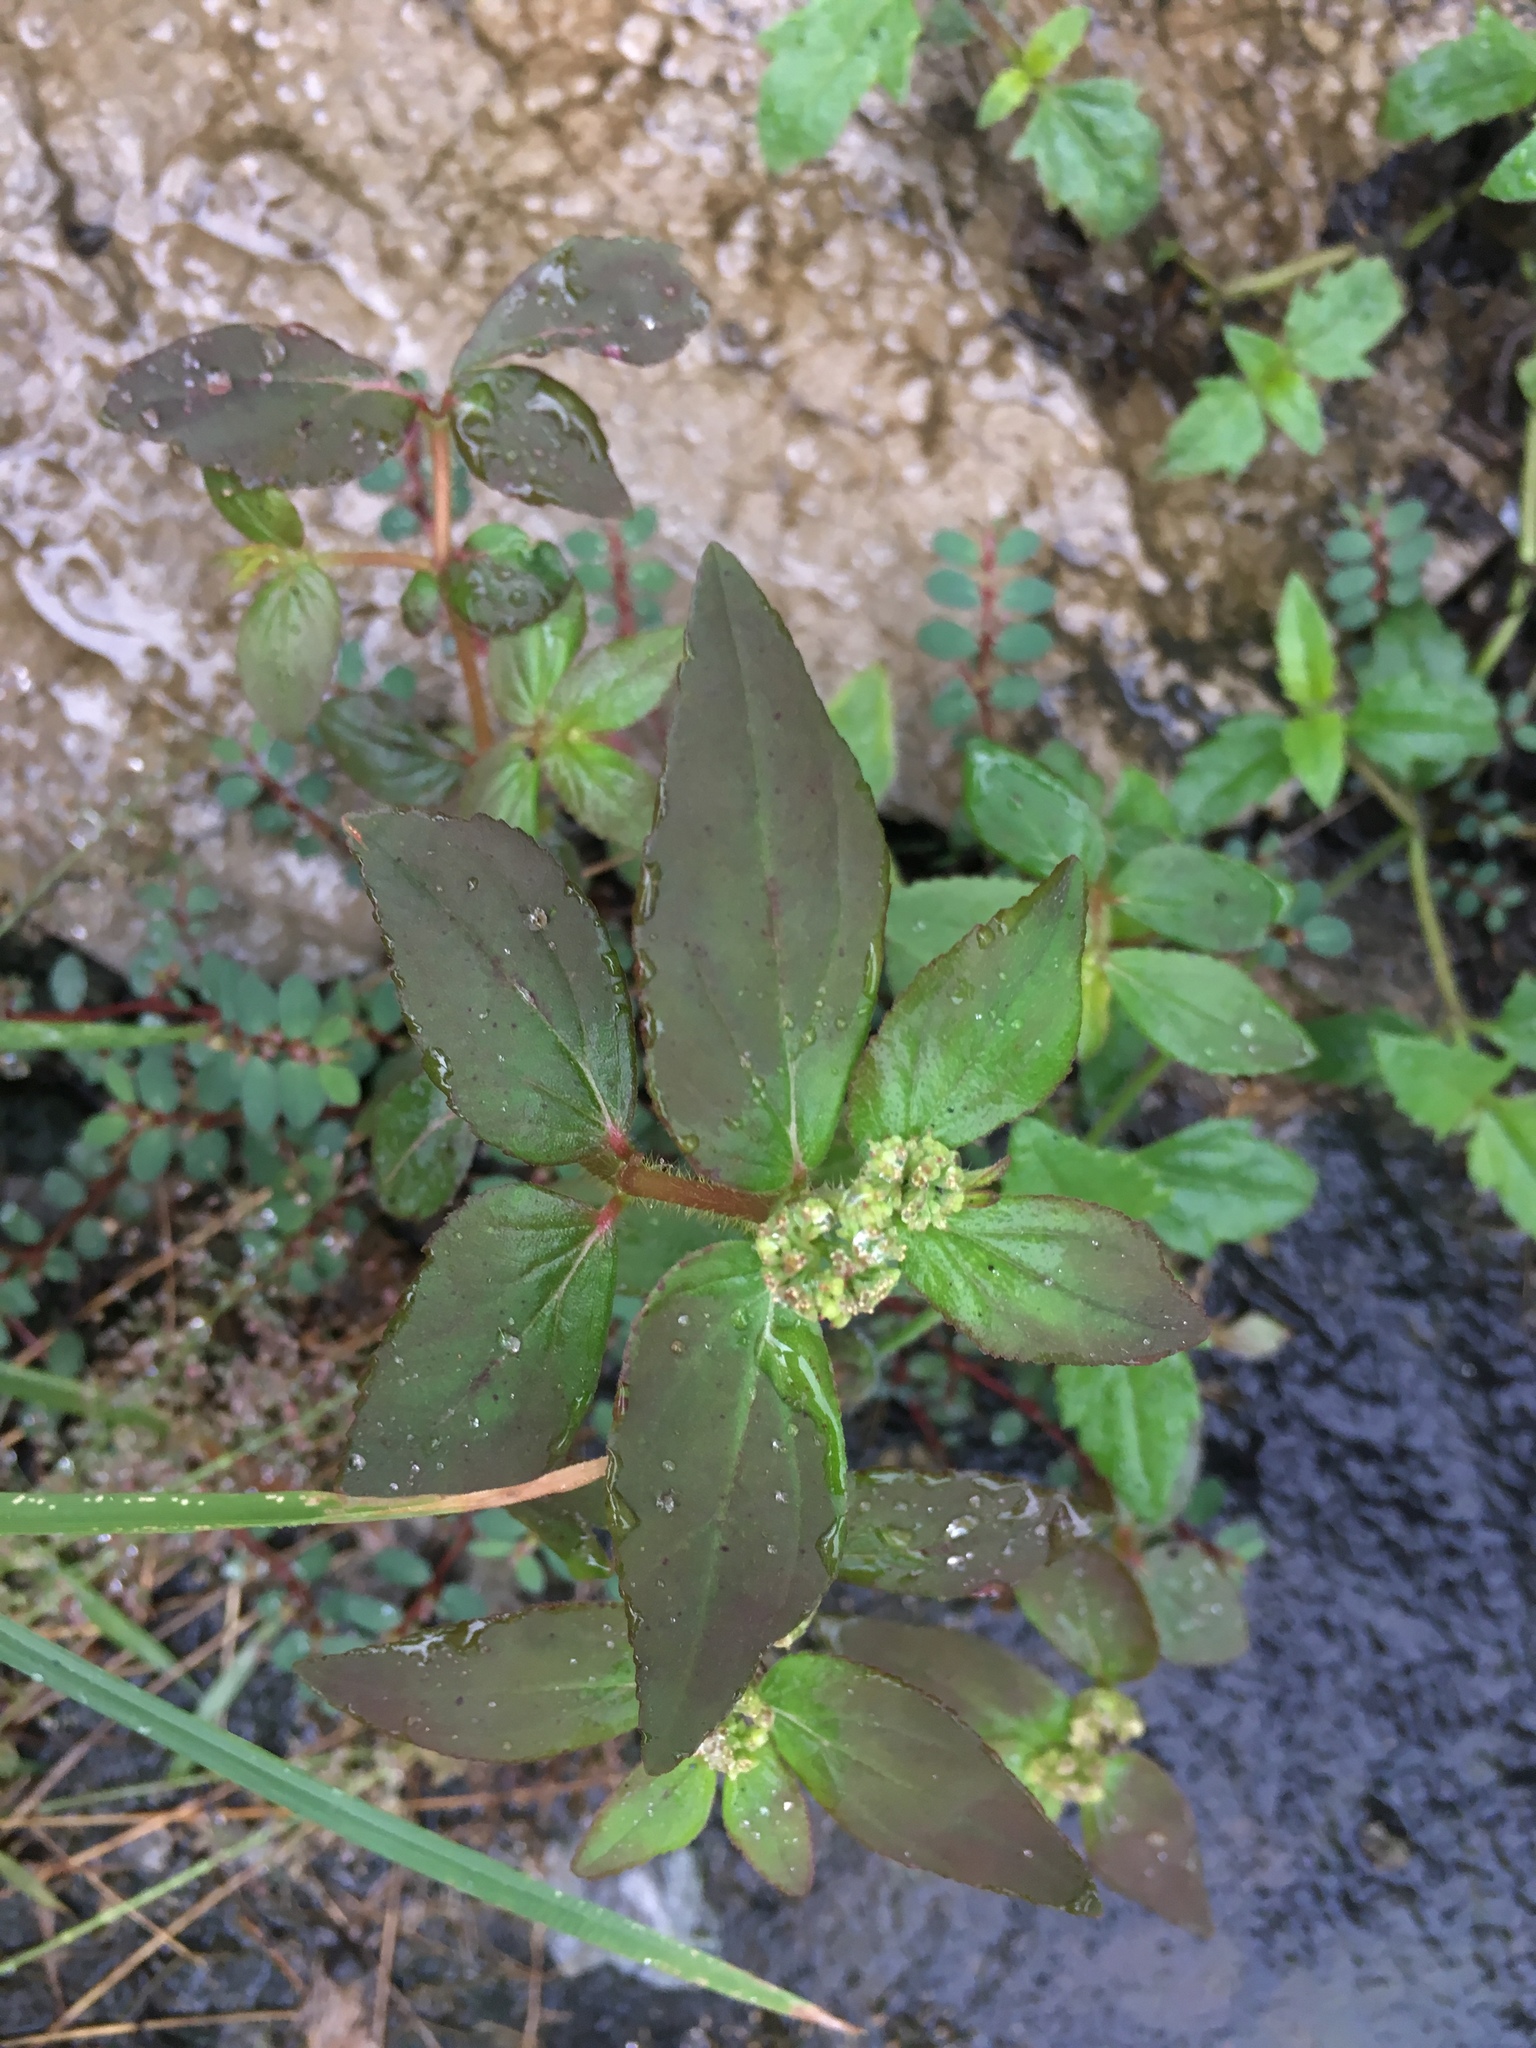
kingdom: Plantae
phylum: Tracheophyta
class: Magnoliopsida
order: Malpighiales
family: Euphorbiaceae
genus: Euphorbia
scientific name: Euphorbia hirta
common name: Pillpod sandmat
